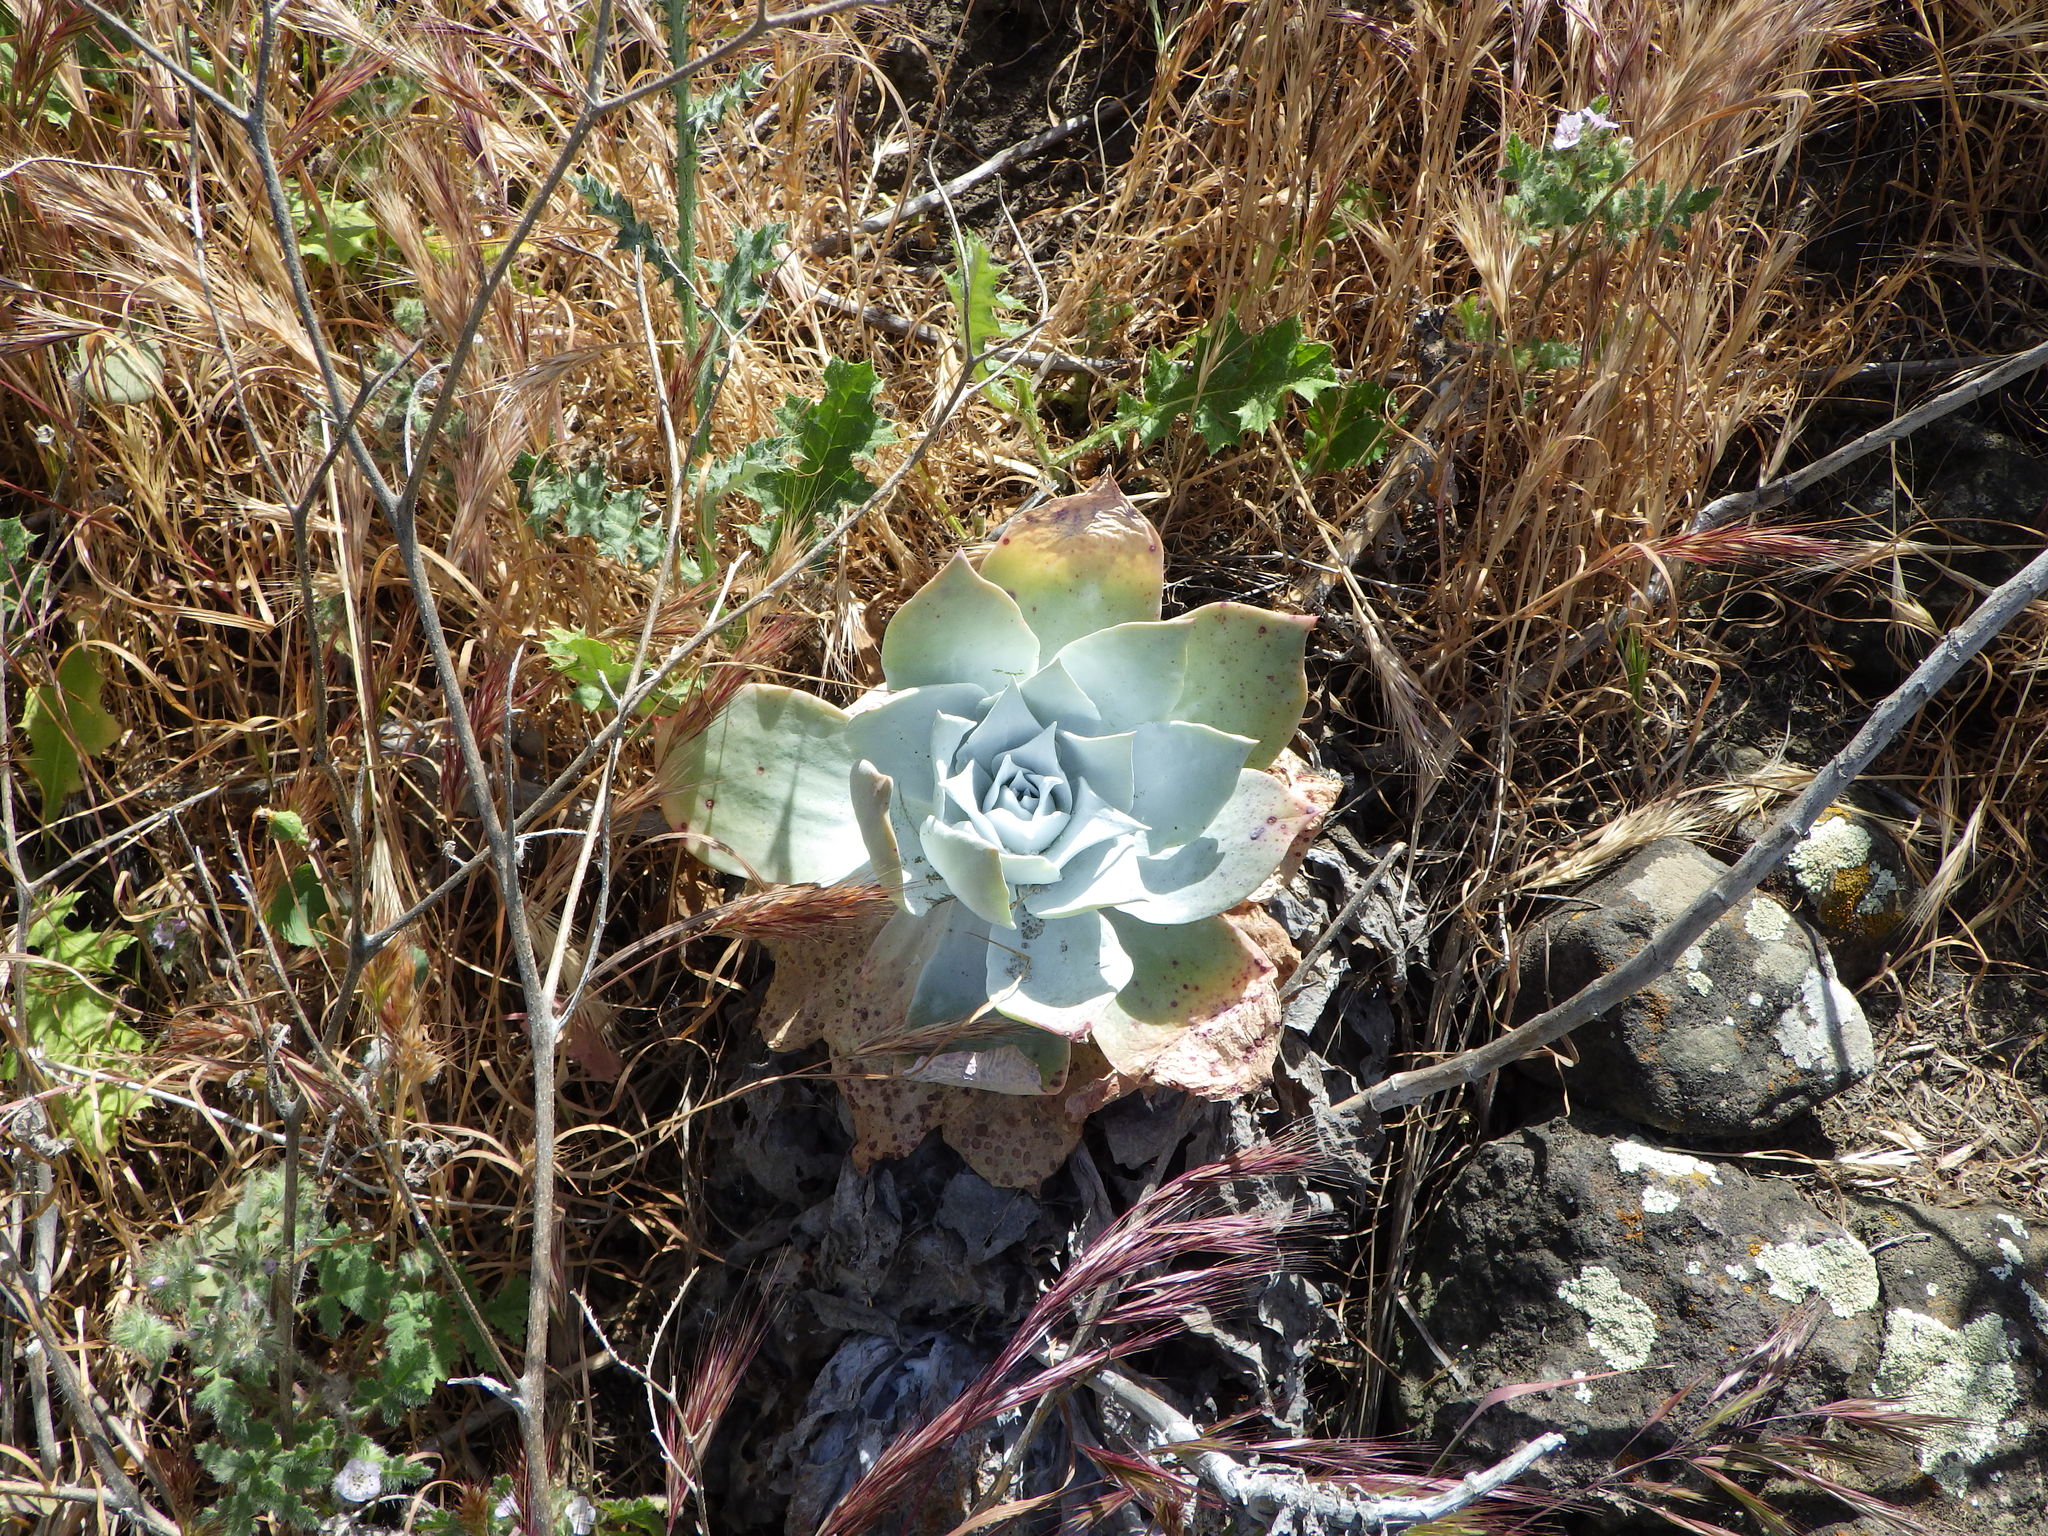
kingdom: Plantae
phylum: Tracheophyta
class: Magnoliopsida
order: Saxifragales
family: Crassulaceae
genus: Dudleya
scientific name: Dudleya pulverulenta
